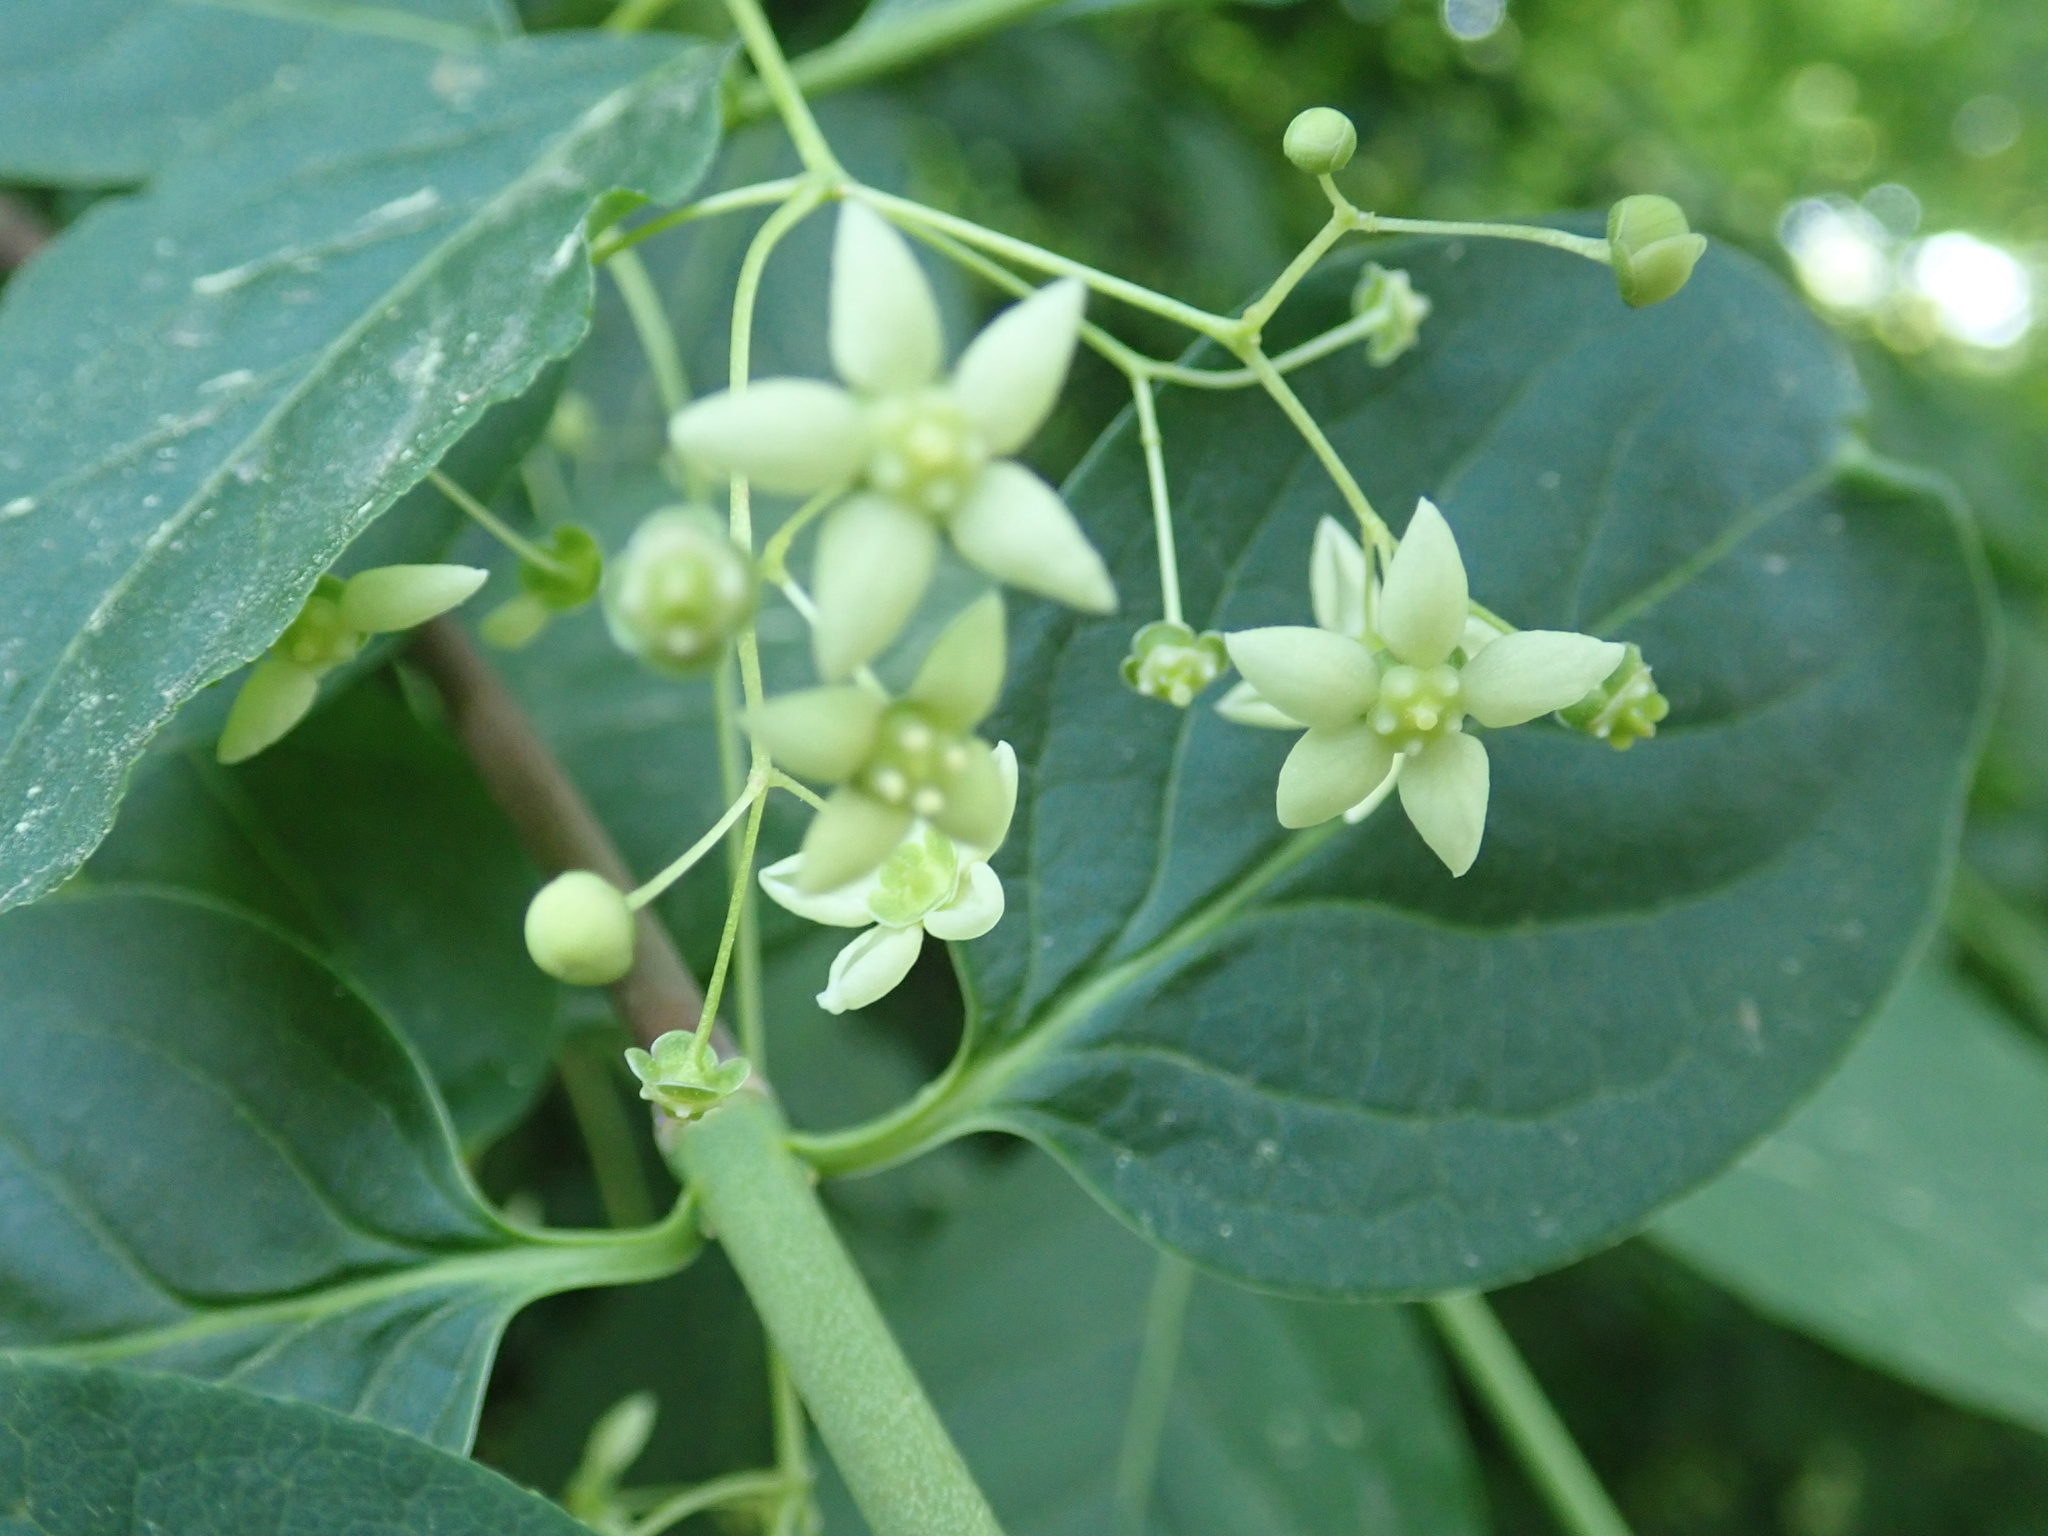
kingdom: Plantae
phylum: Tracheophyta
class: Magnoliopsida
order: Celastrales
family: Celastraceae
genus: Euonymus
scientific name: Euonymus latifolius
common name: Large-leaved spindle
